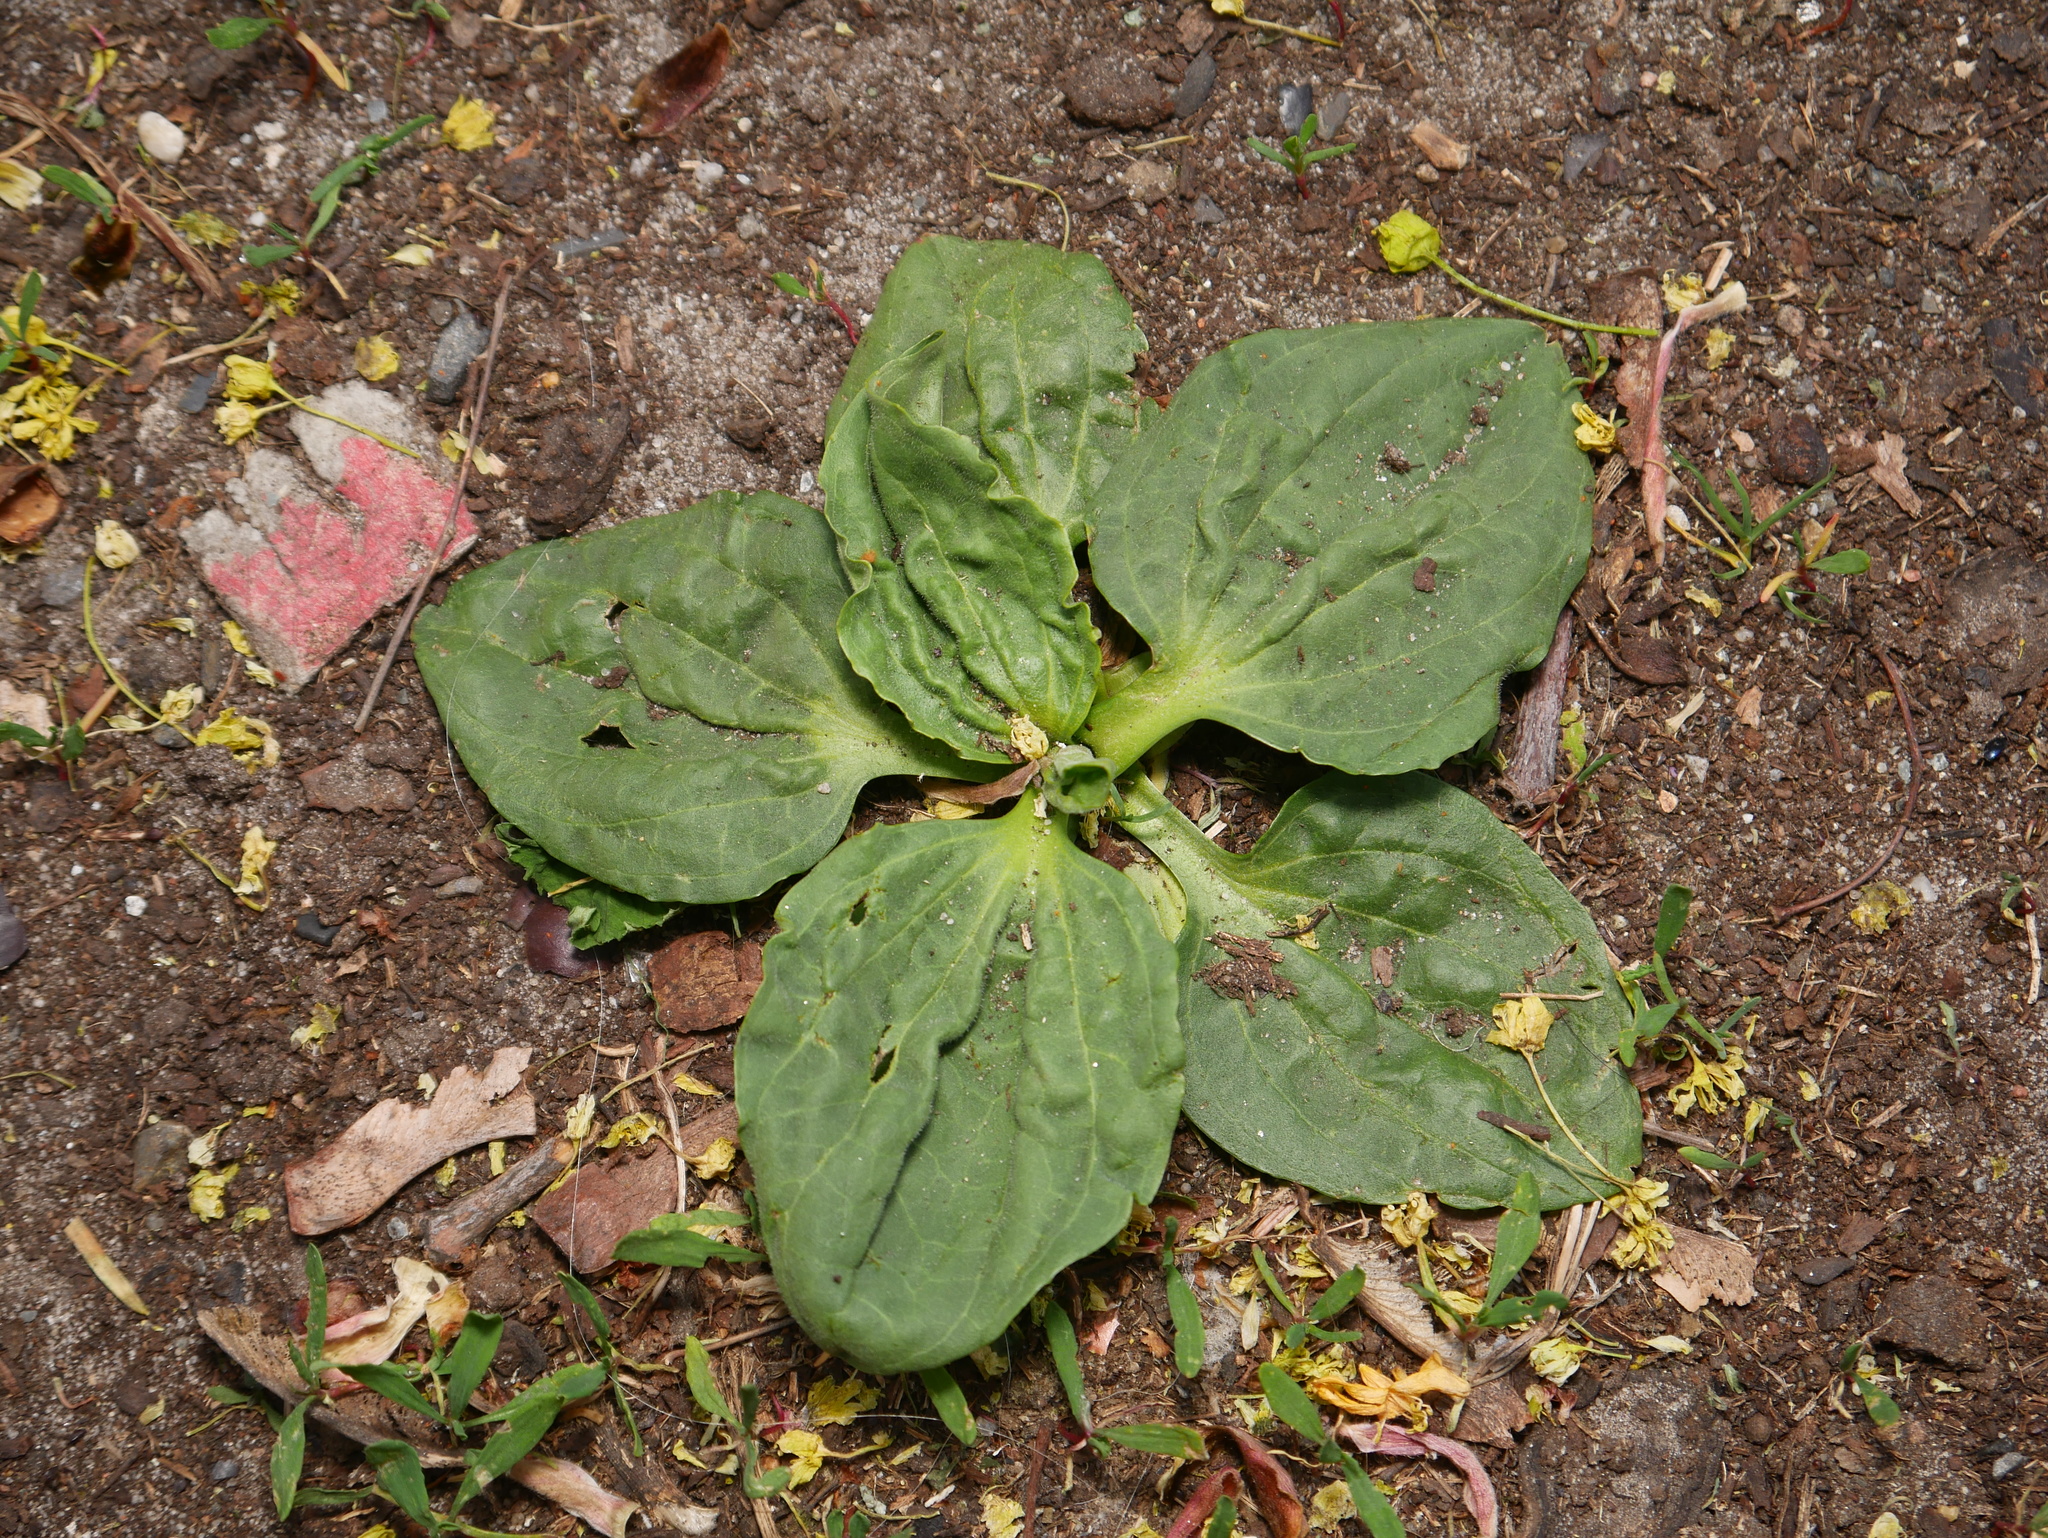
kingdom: Plantae
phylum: Tracheophyta
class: Magnoliopsida
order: Lamiales
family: Plantaginaceae
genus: Plantago
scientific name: Plantago major
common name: Common plantain
